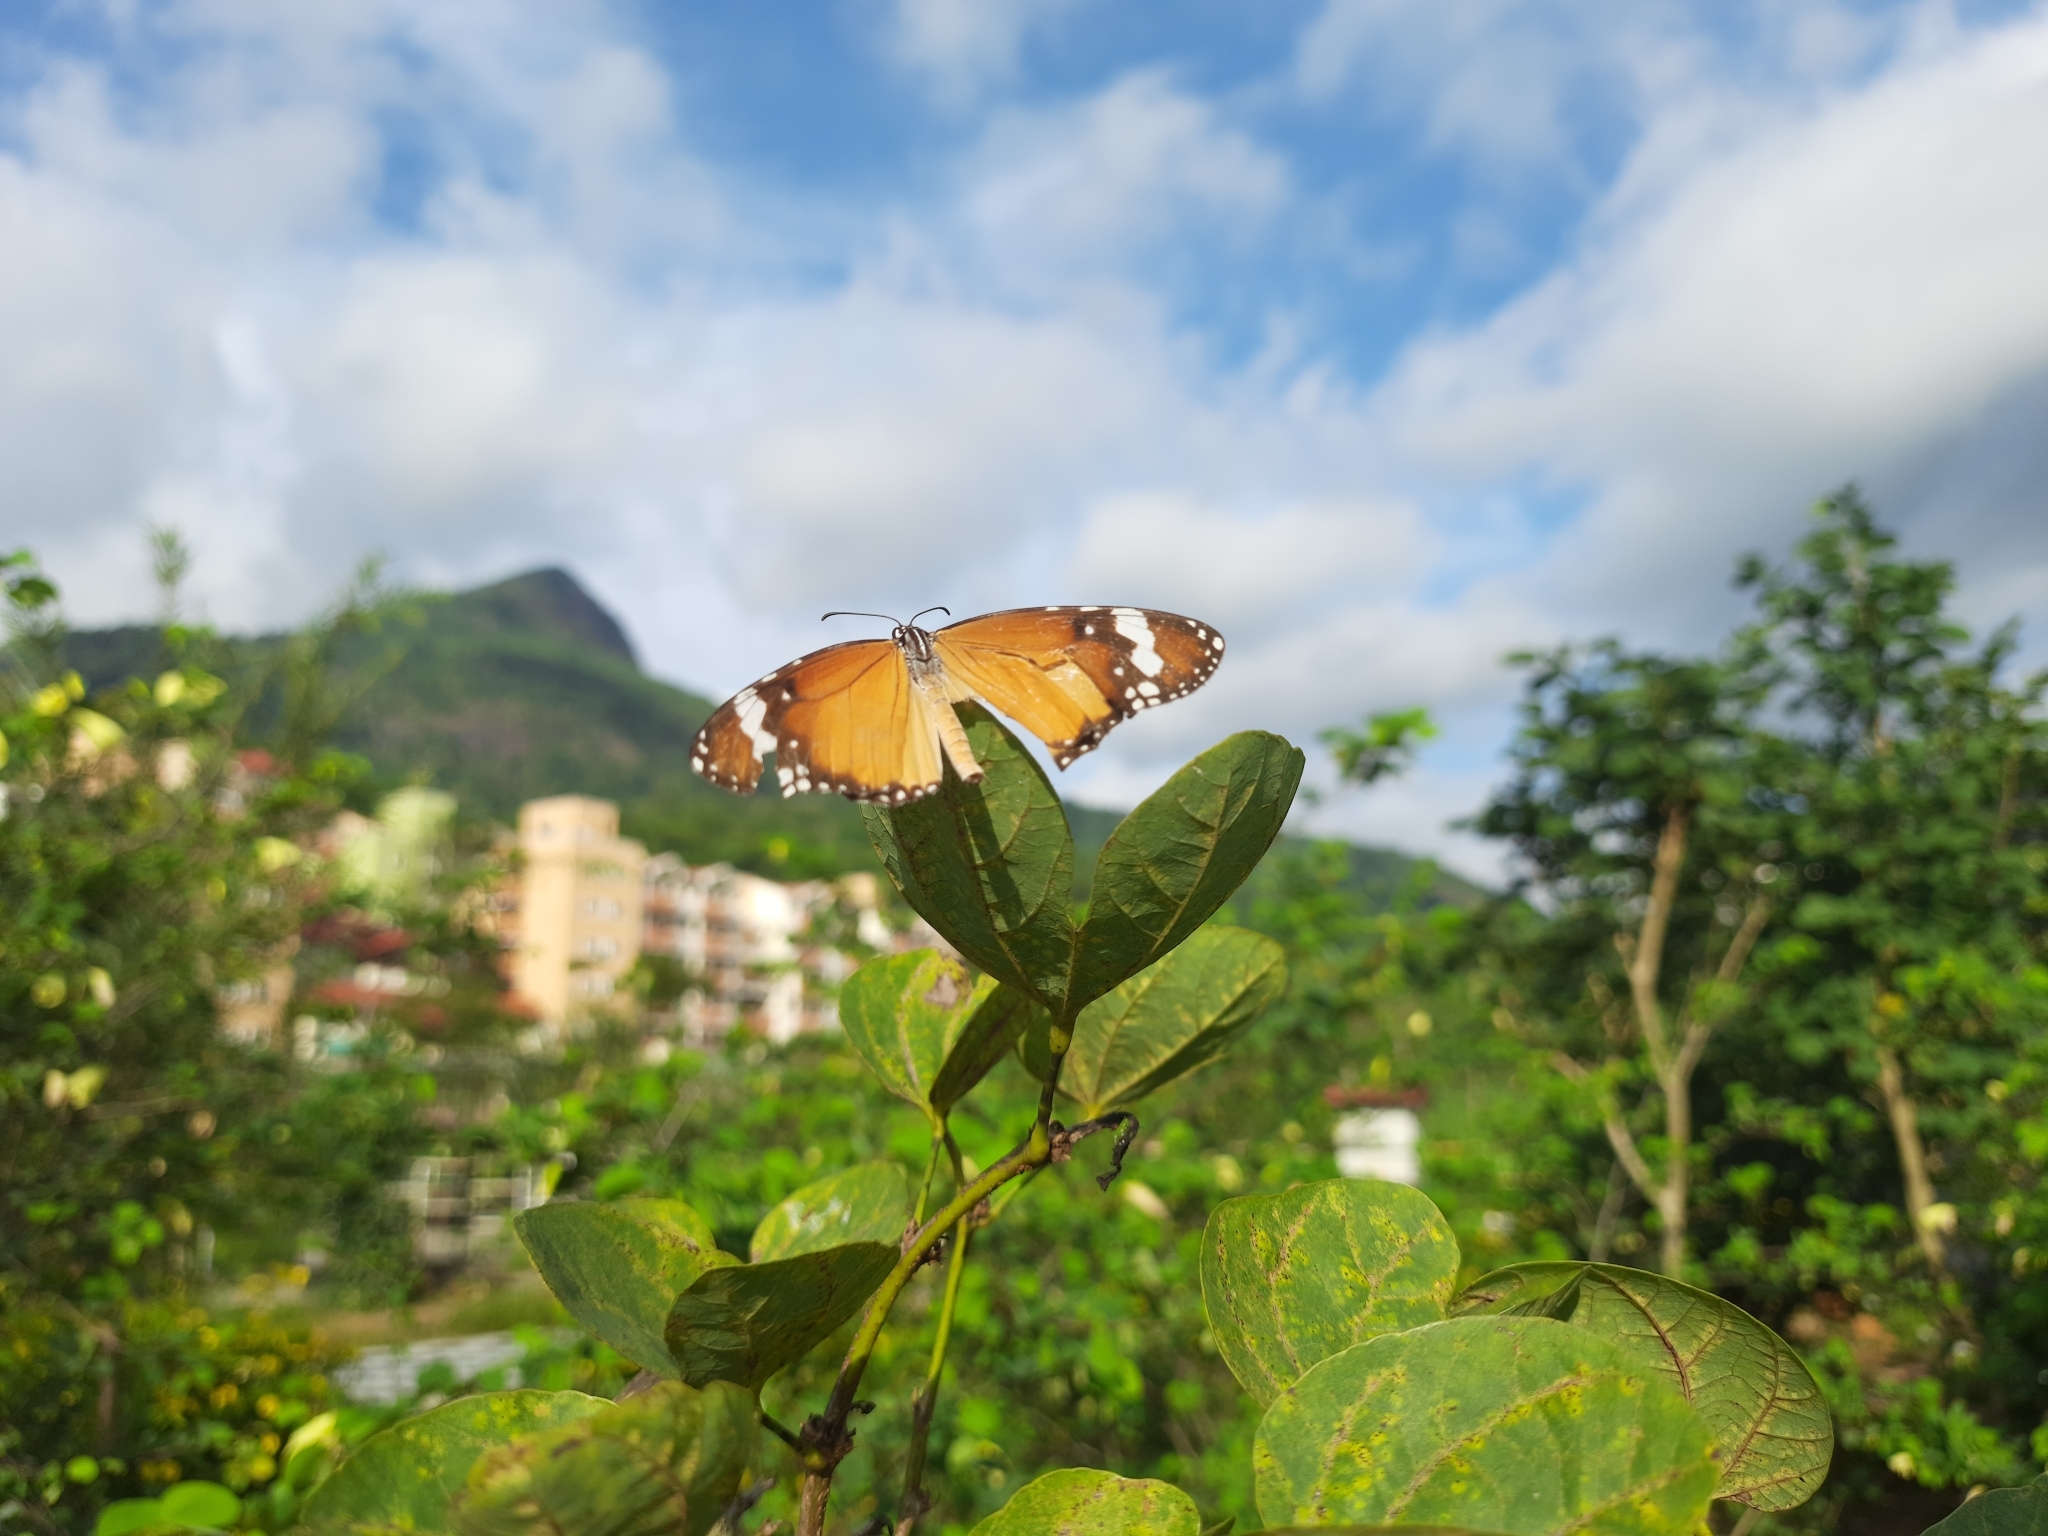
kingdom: Animalia
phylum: Arthropoda
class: Insecta
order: Lepidoptera
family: Nymphalidae
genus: Danaus
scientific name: Danaus chrysippus
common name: Plain tiger
